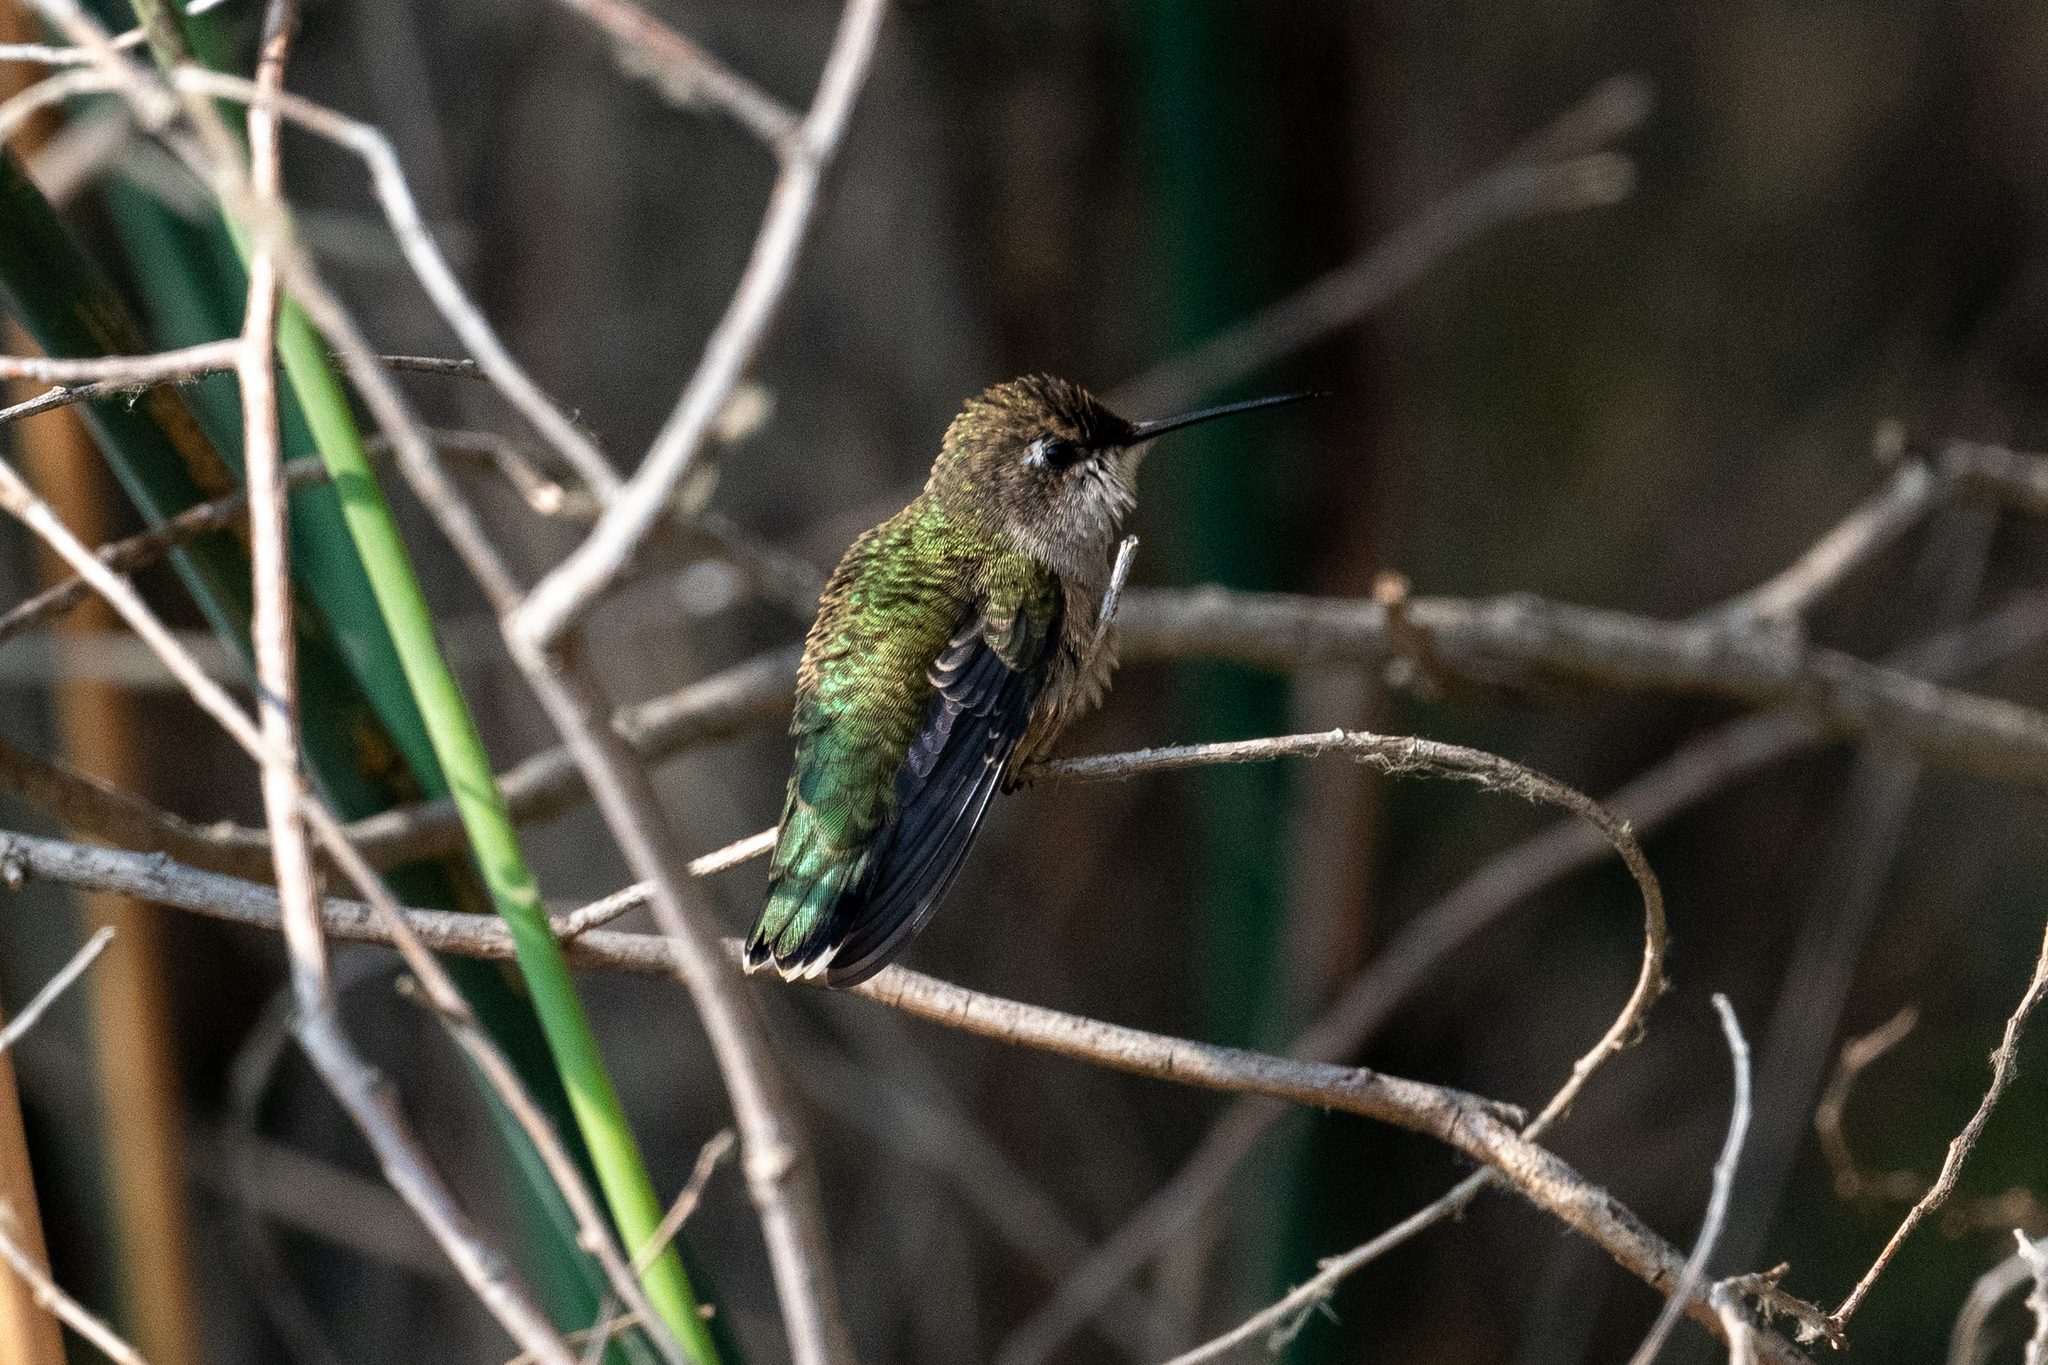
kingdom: Animalia
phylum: Chordata
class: Aves
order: Apodiformes
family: Trochilidae
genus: Calypte
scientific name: Calypte anna
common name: Anna's hummingbird
